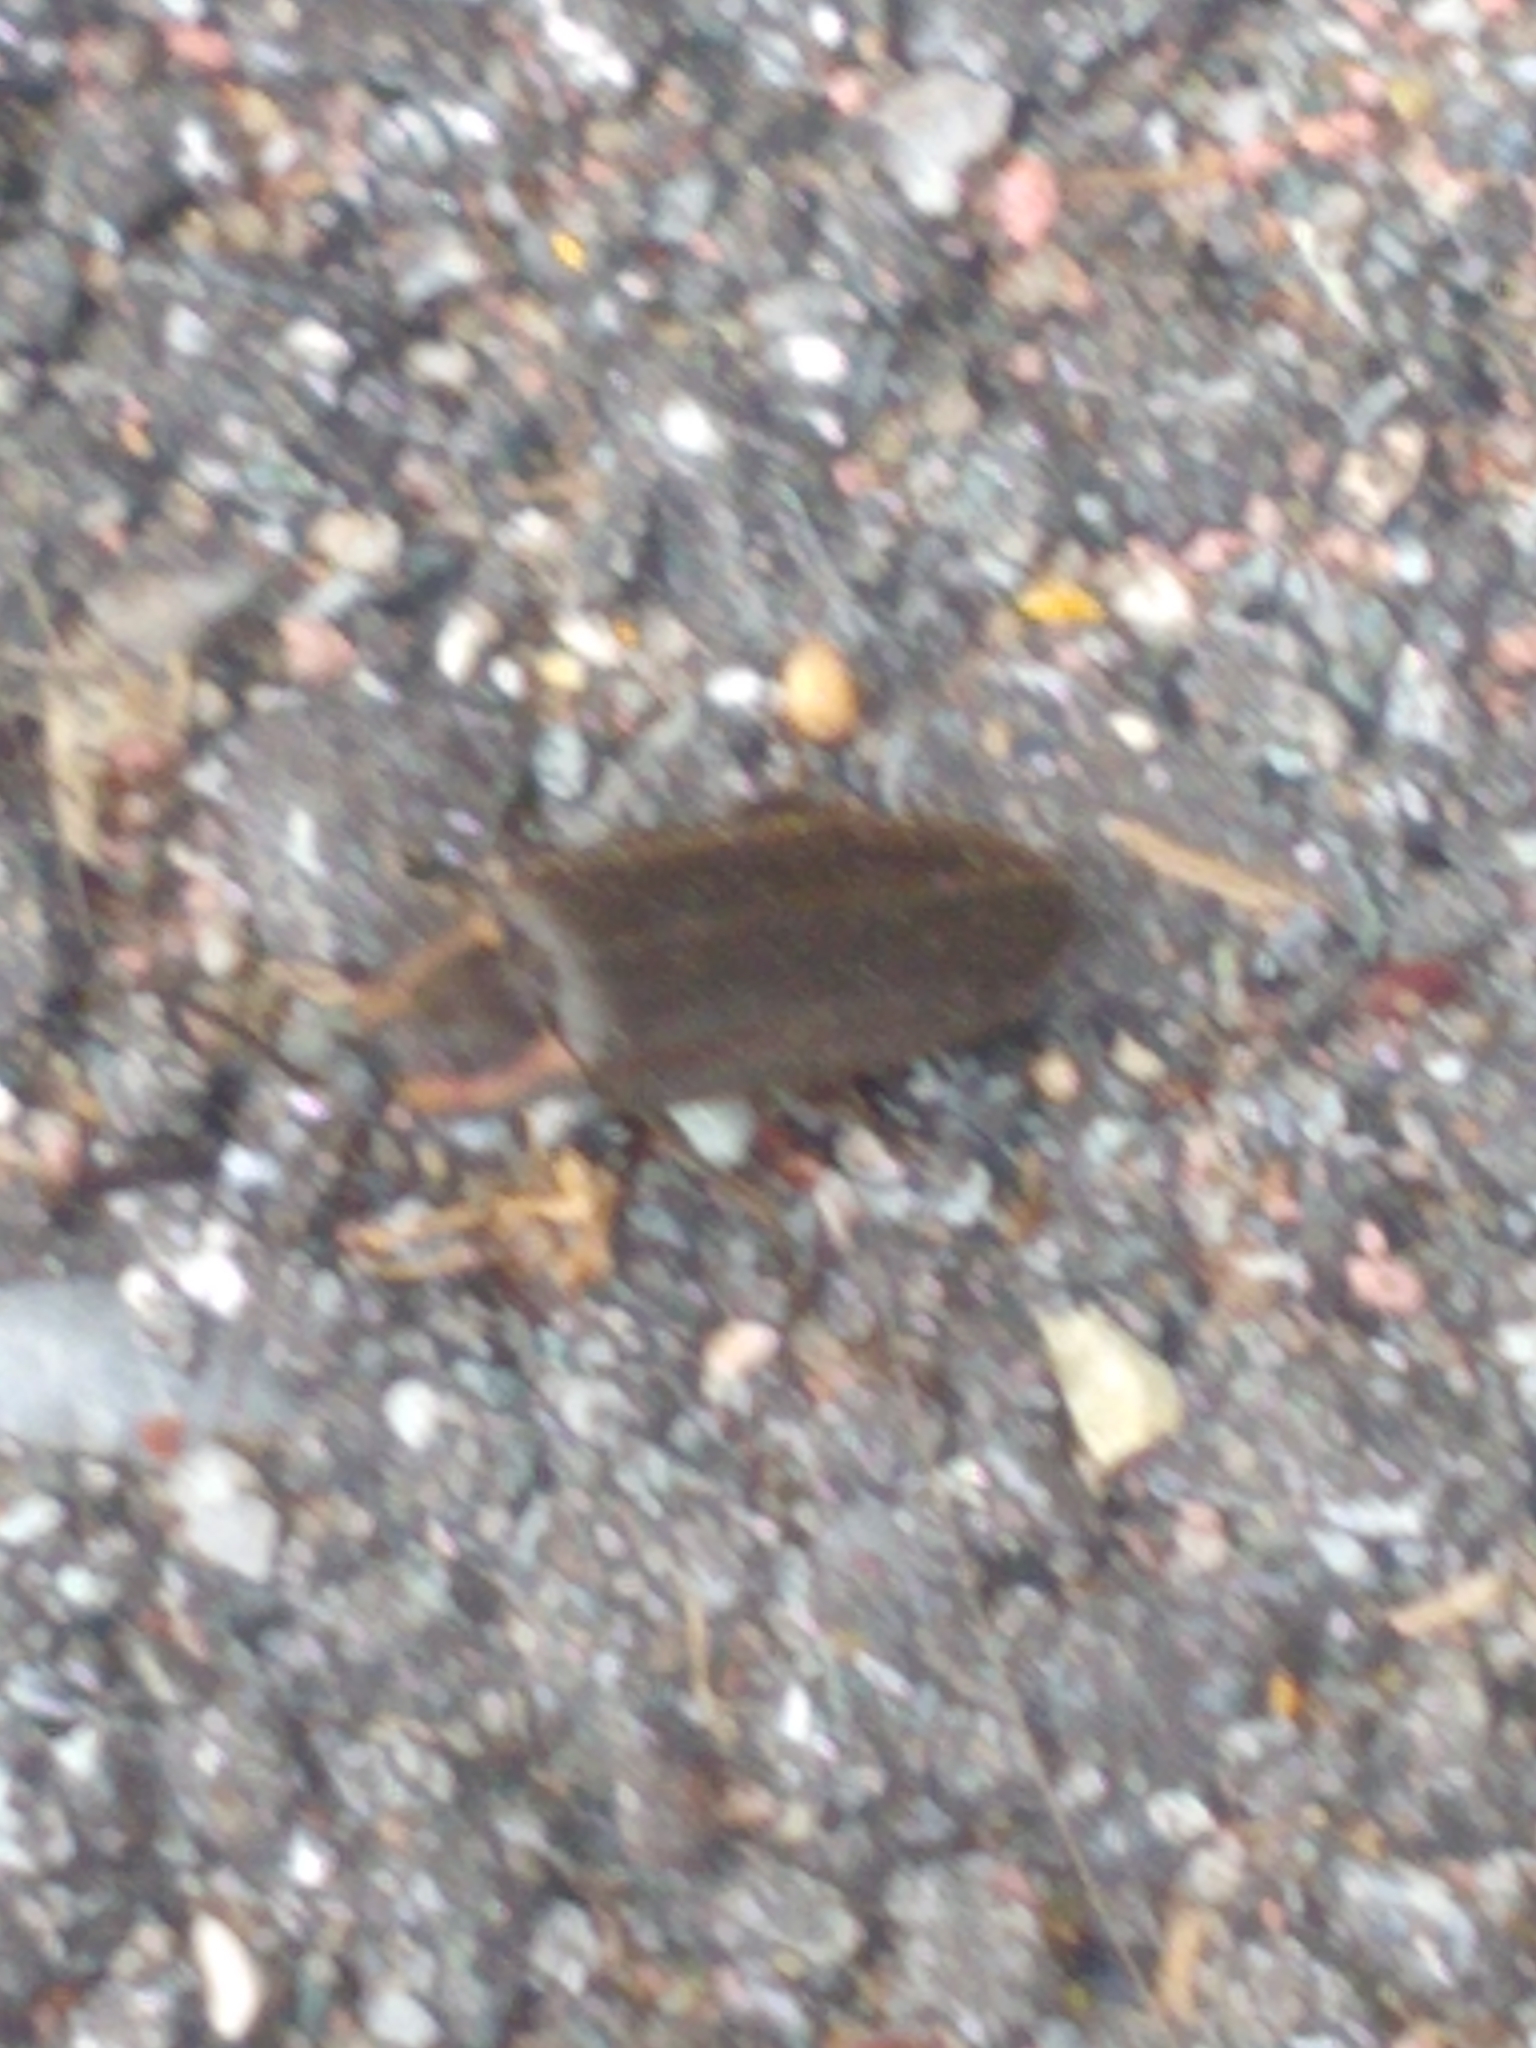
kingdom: Animalia
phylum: Arthropoda
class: Insecta
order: Coleoptera
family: Lampyridae
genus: Photinus
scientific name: Photinus corrusca
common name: Winter firefly
